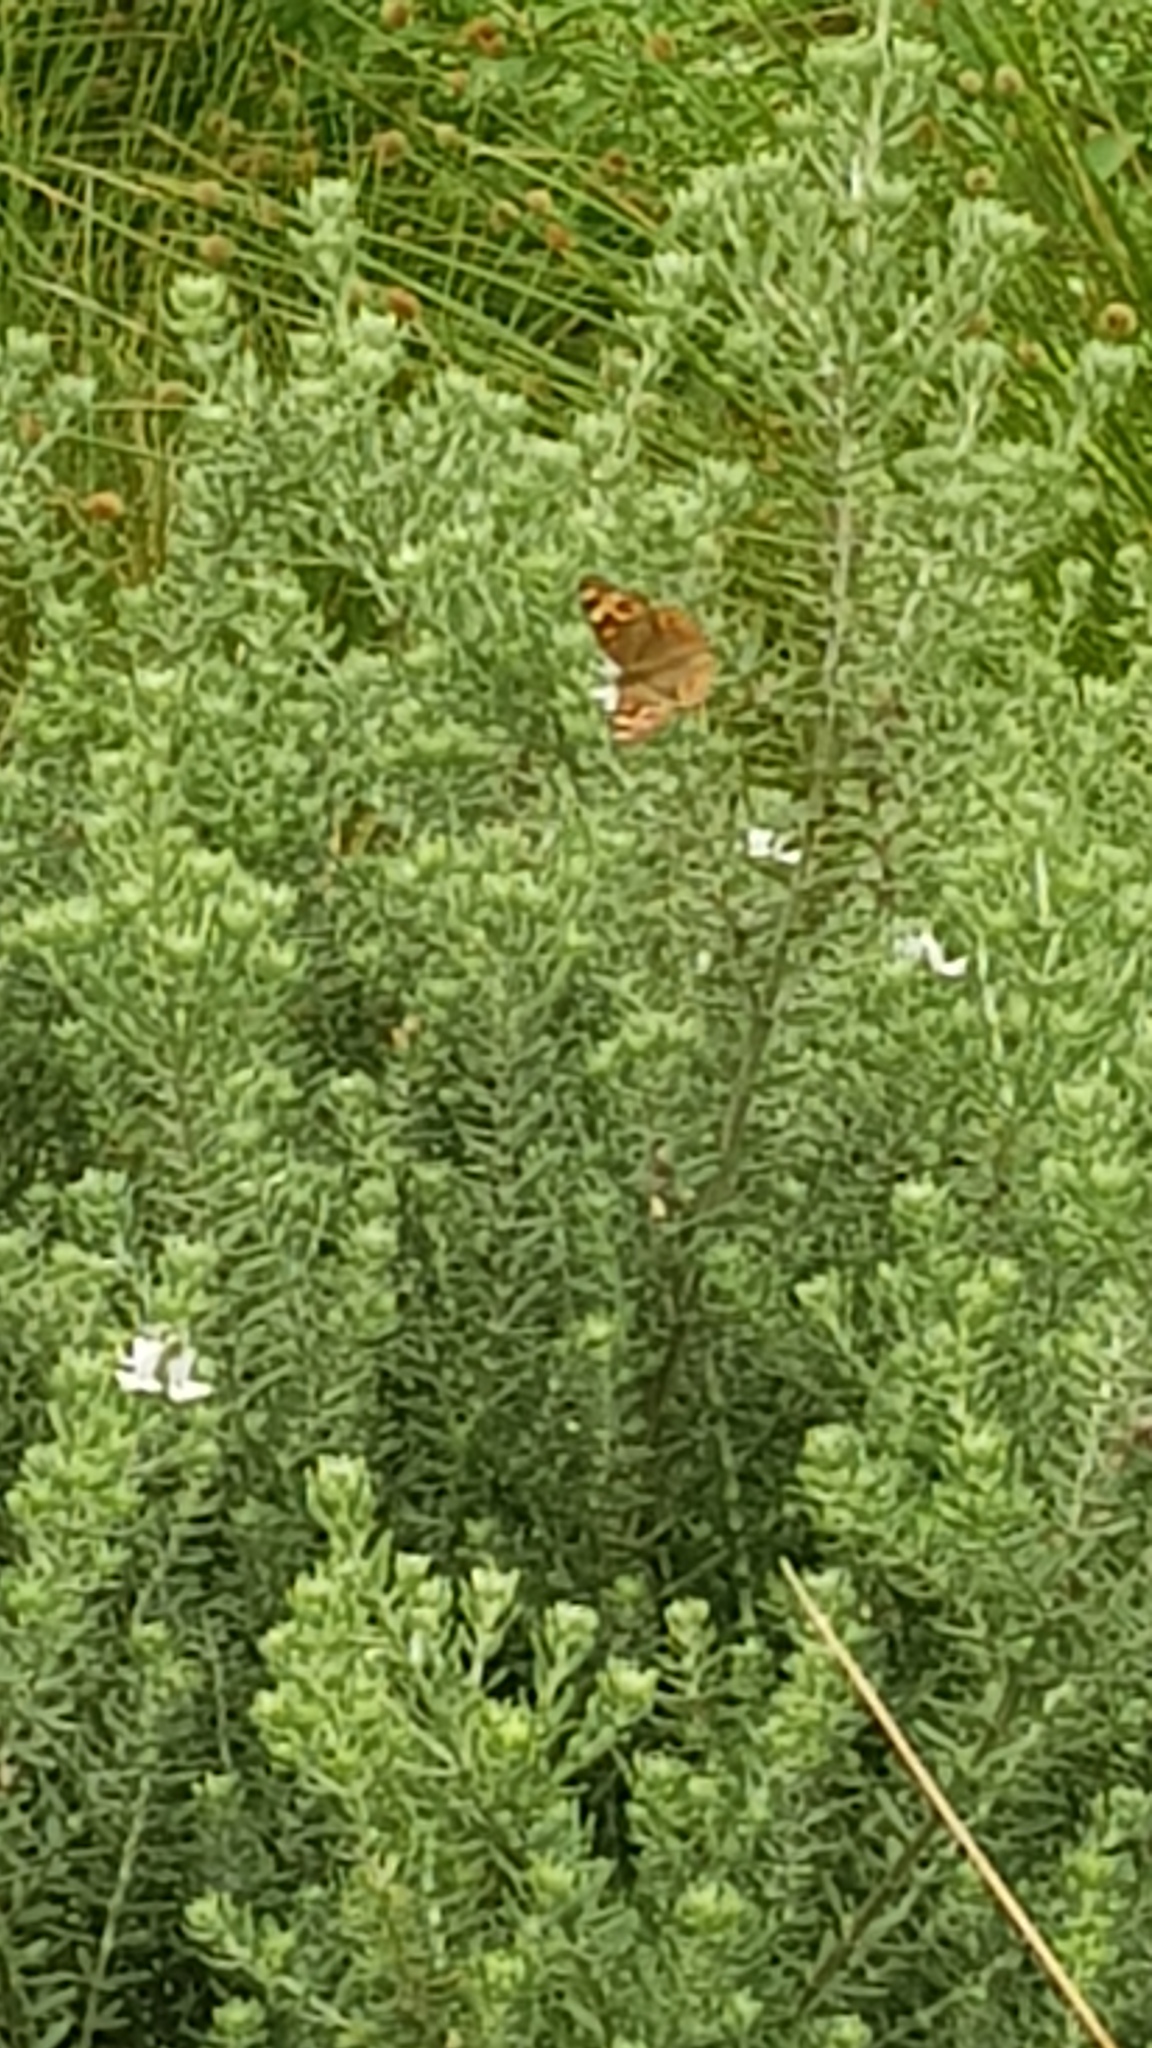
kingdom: Animalia
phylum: Arthropoda
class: Insecta
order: Lepidoptera
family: Nymphalidae
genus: Junonia
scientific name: Junonia villida
